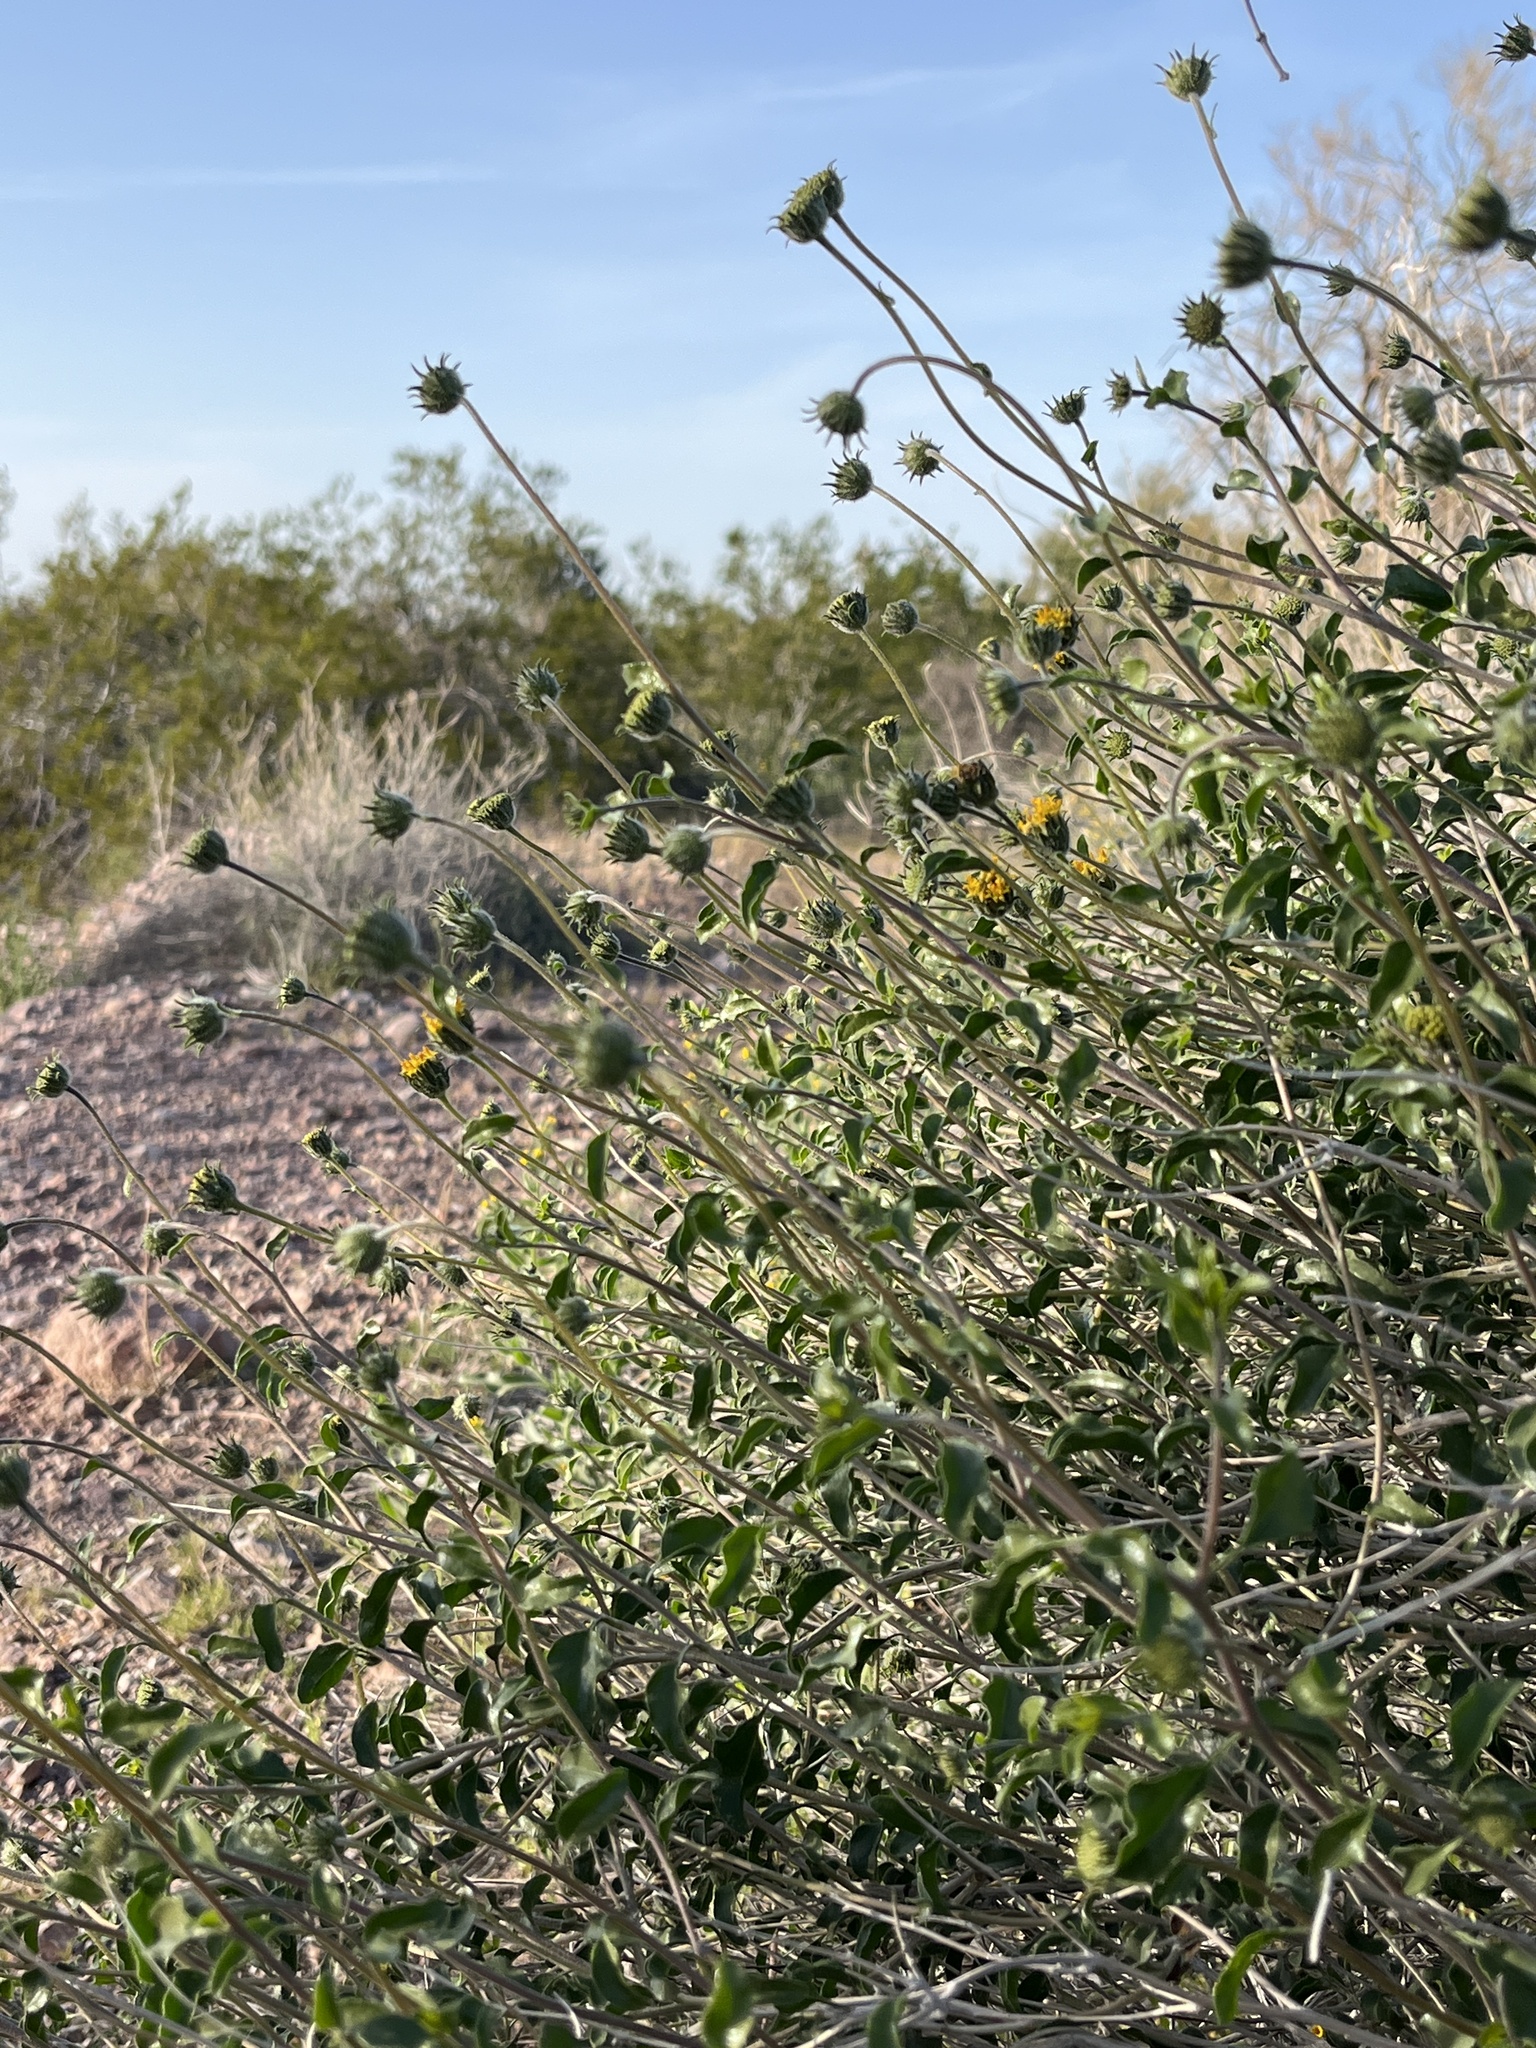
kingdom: Plantae
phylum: Tracheophyta
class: Magnoliopsida
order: Asterales
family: Asteraceae
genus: Encelia
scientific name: Encelia frutescens
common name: Bush encelia
